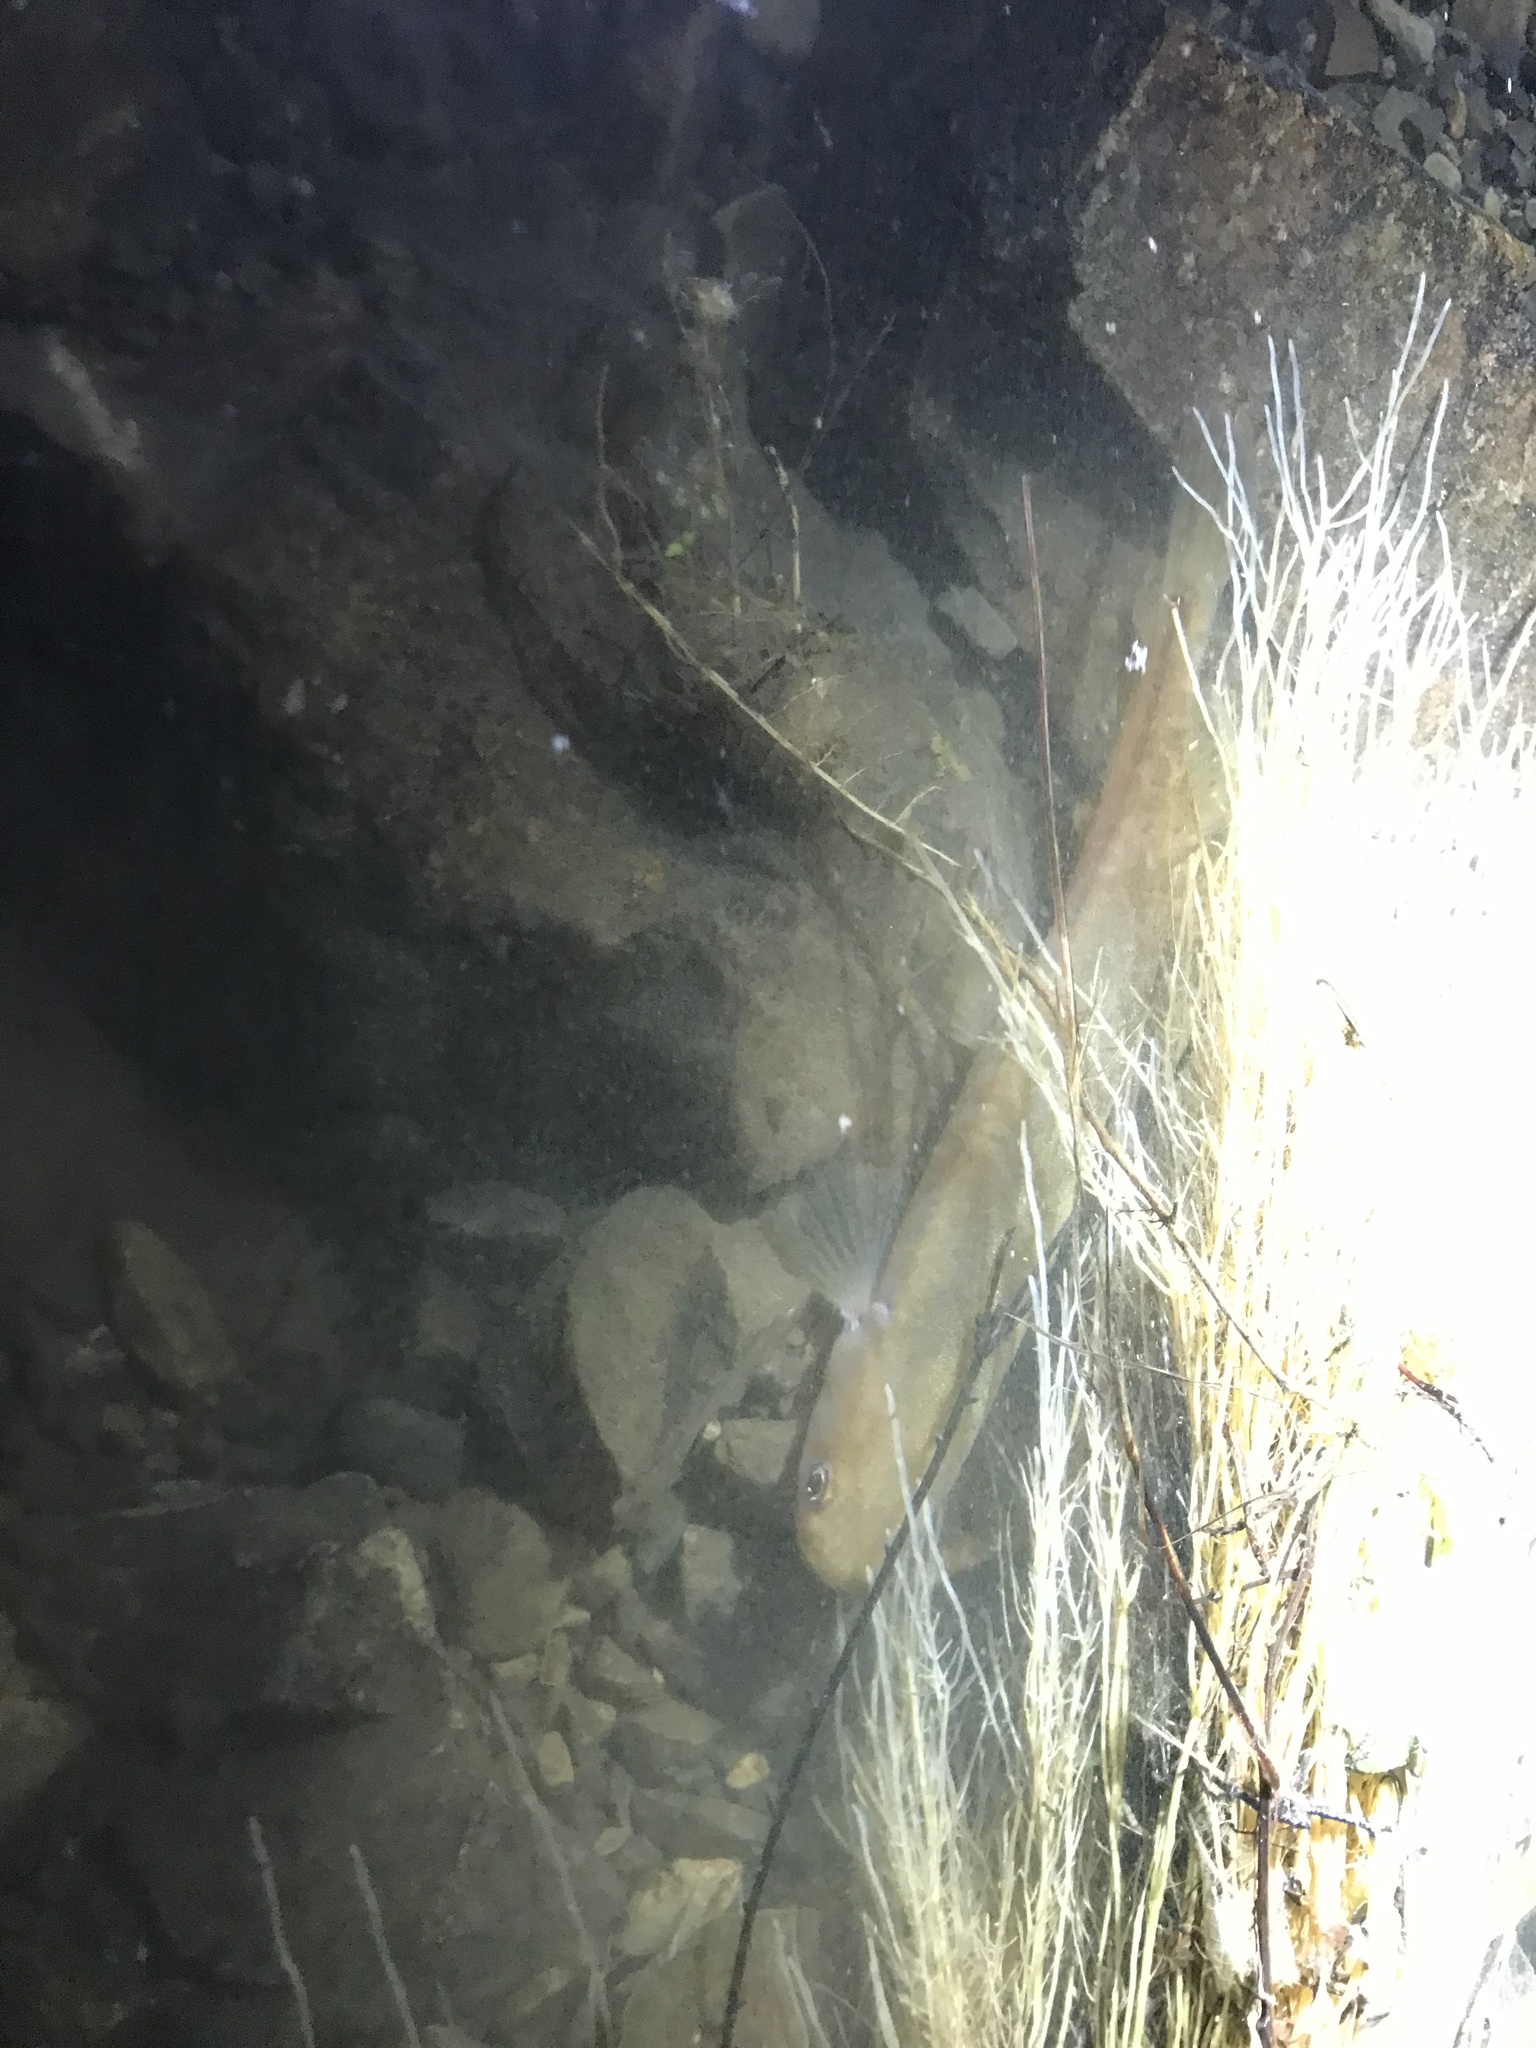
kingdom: Animalia
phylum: Chordata
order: Osmeriformes
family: Galaxiidae
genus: Galaxias
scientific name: Galaxias fasciatus
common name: Banded kokopu
